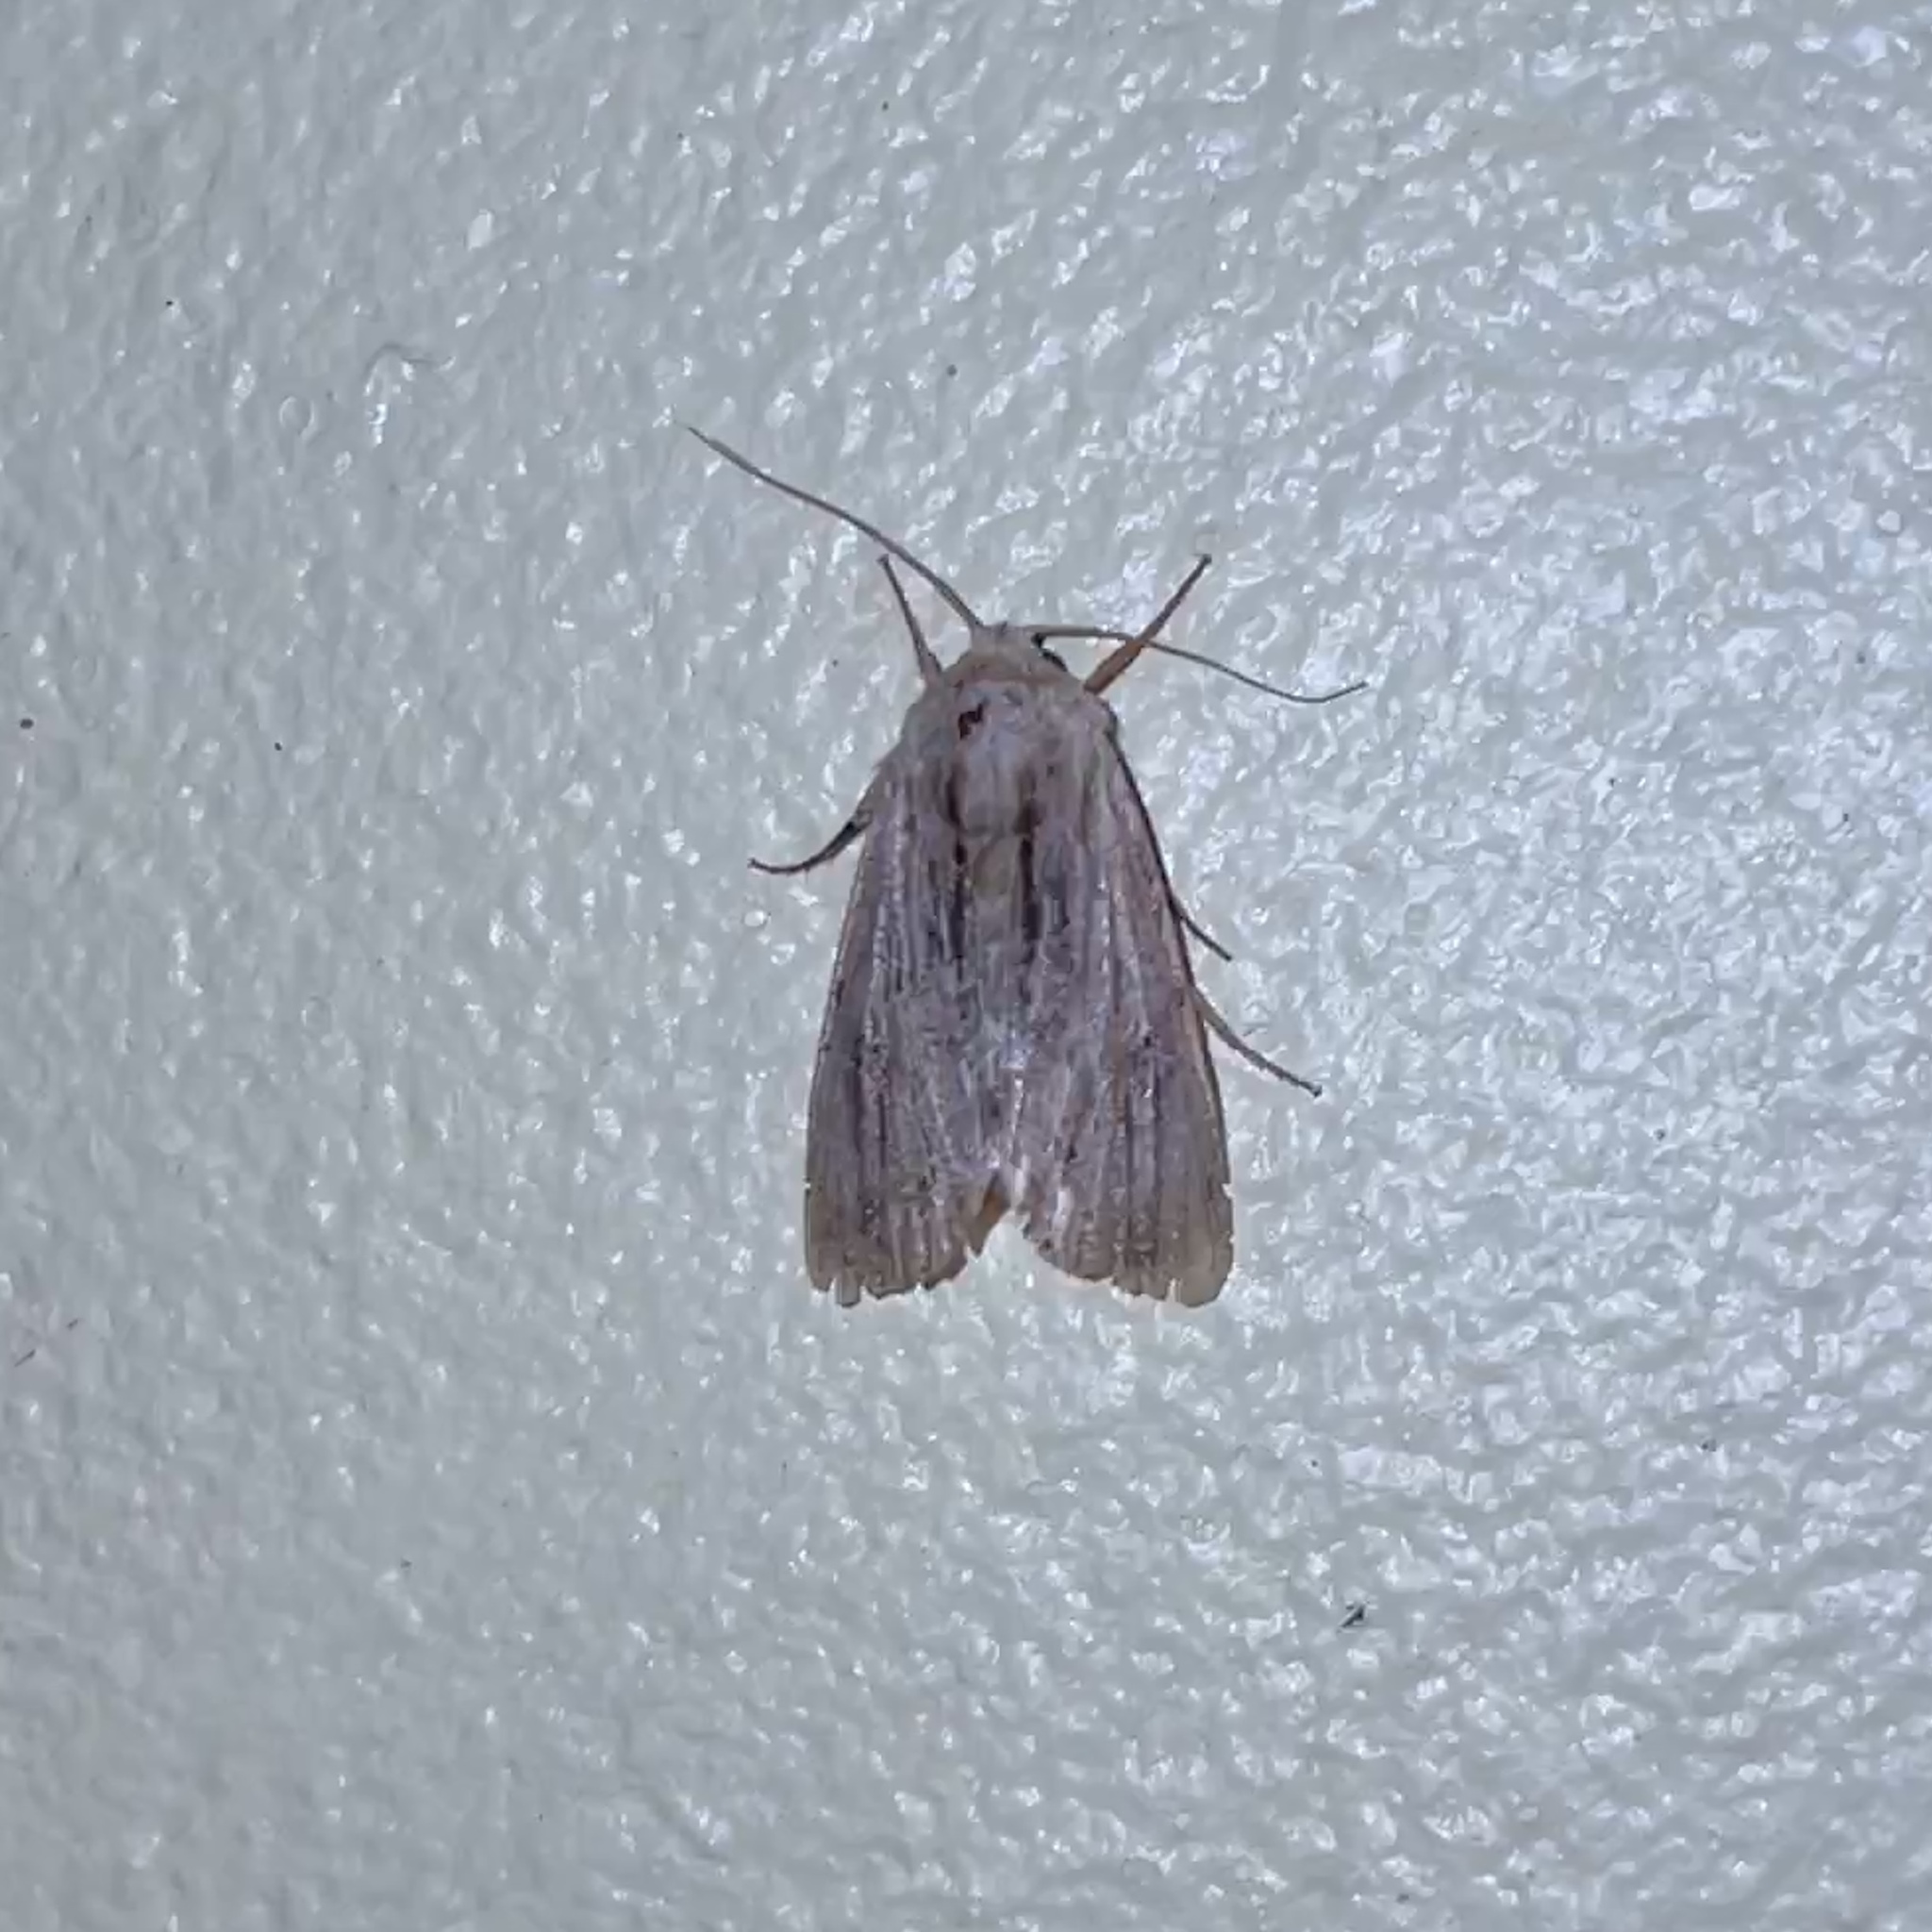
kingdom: Animalia
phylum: Arthropoda
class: Insecta
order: Lepidoptera
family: Noctuidae
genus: Spodoptera
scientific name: Spodoptera eridania
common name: Southern army worm
